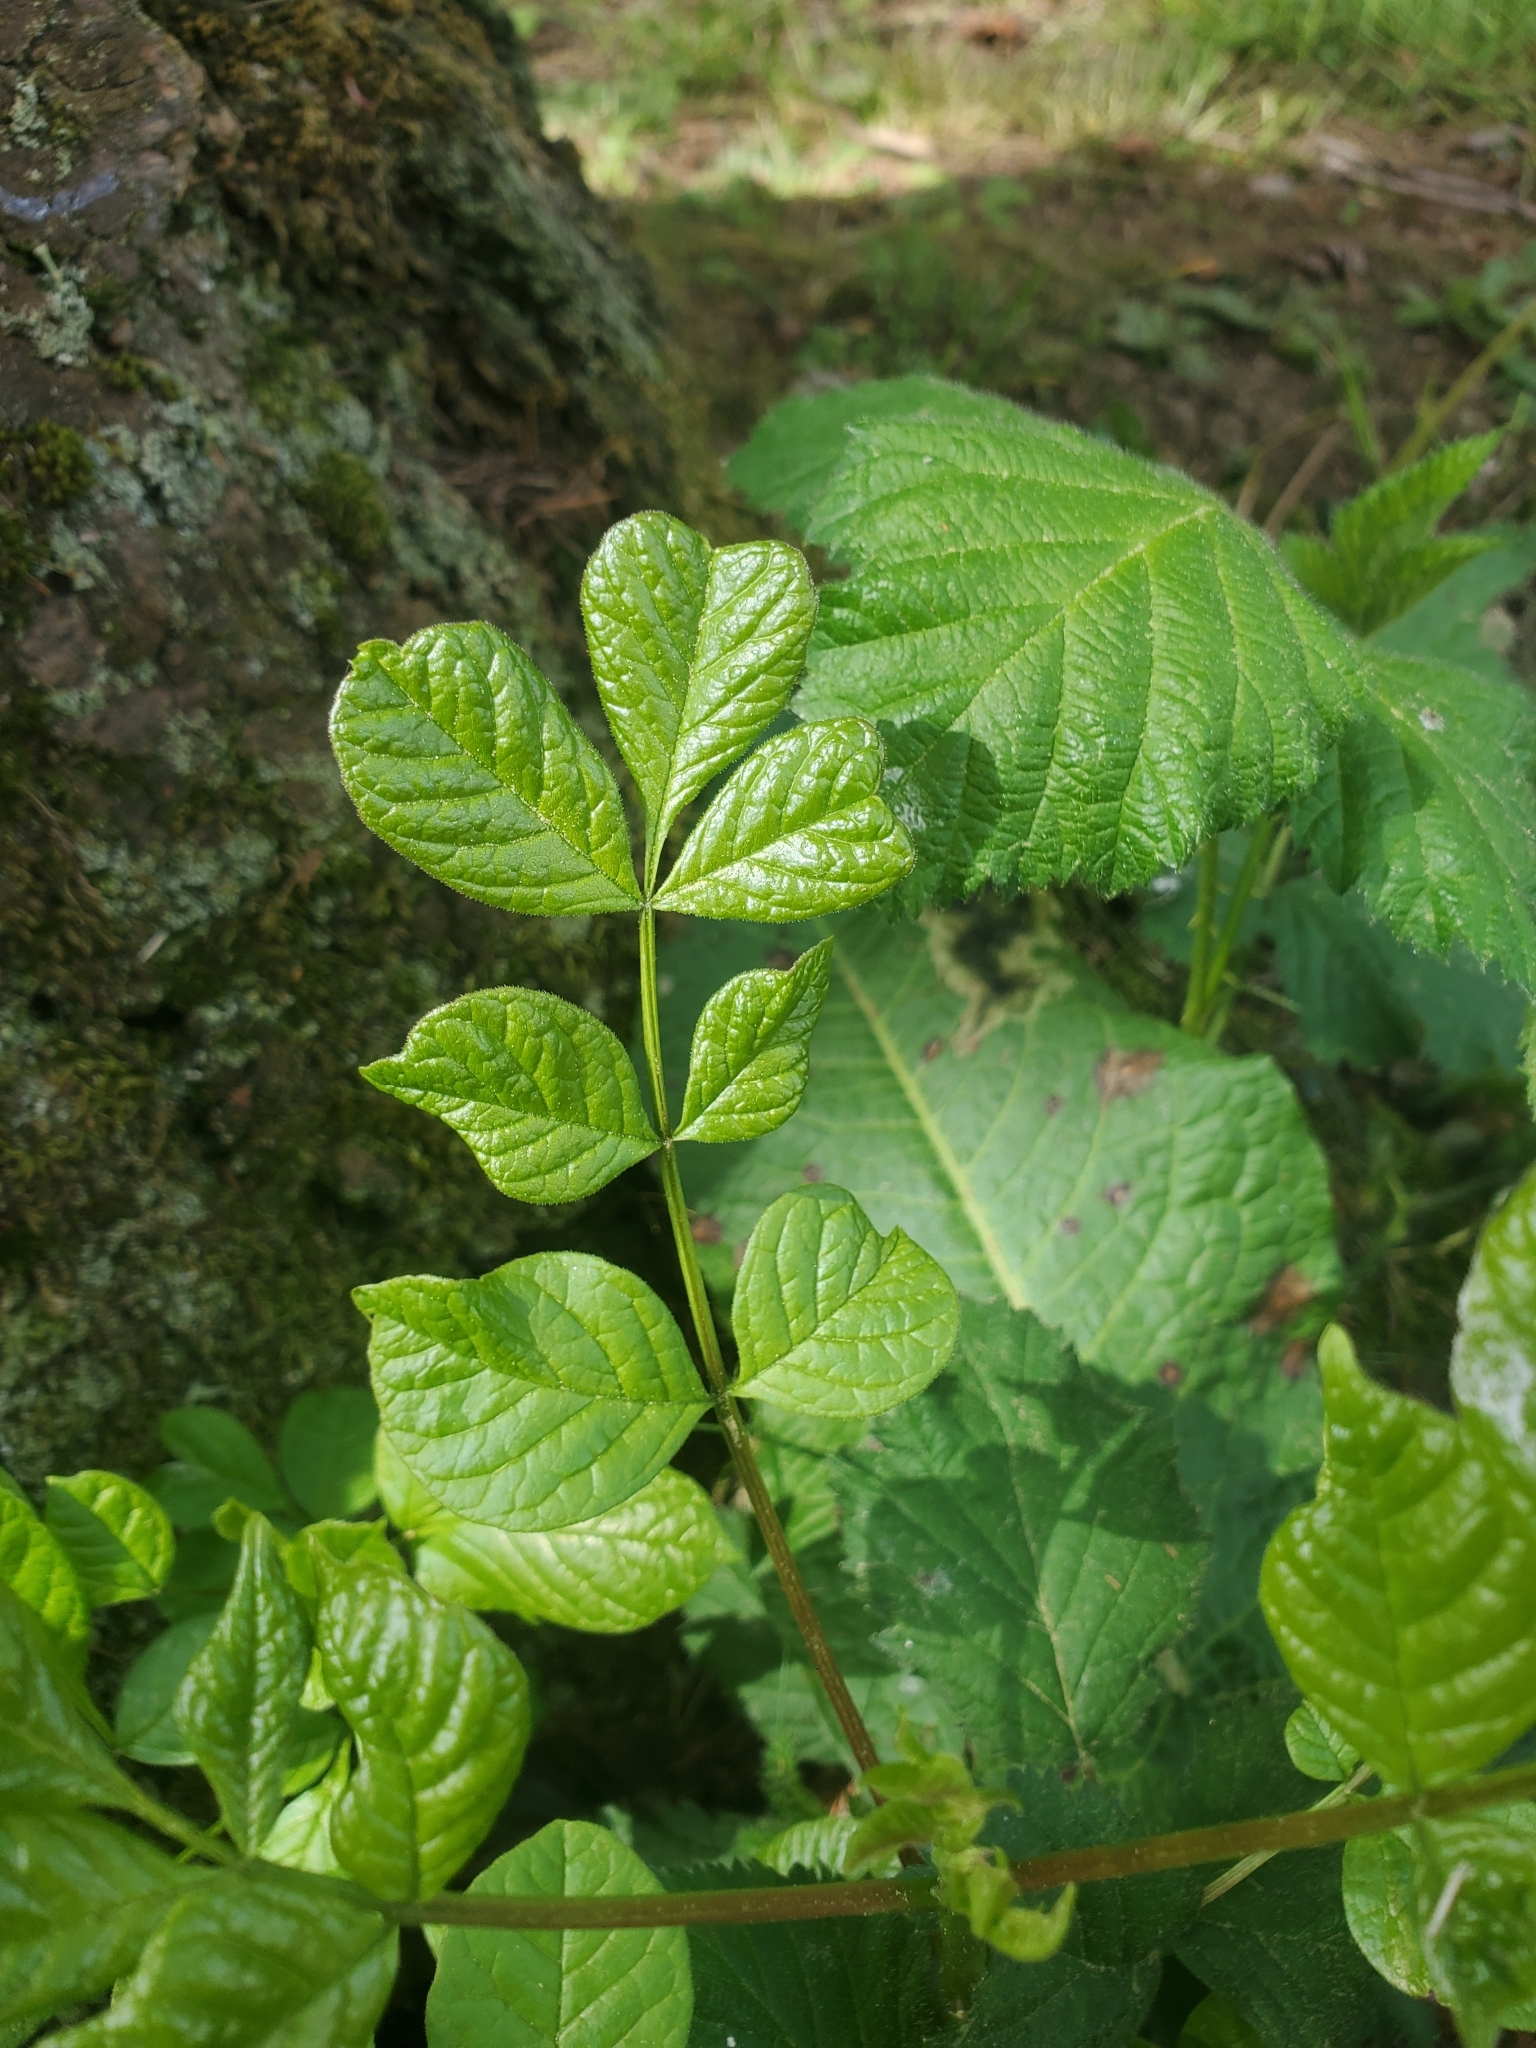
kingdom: Plantae
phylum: Tracheophyta
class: Magnoliopsida
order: Lamiales
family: Oleaceae
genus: Fraxinus
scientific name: Fraxinus latifolia
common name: Oregon ash
